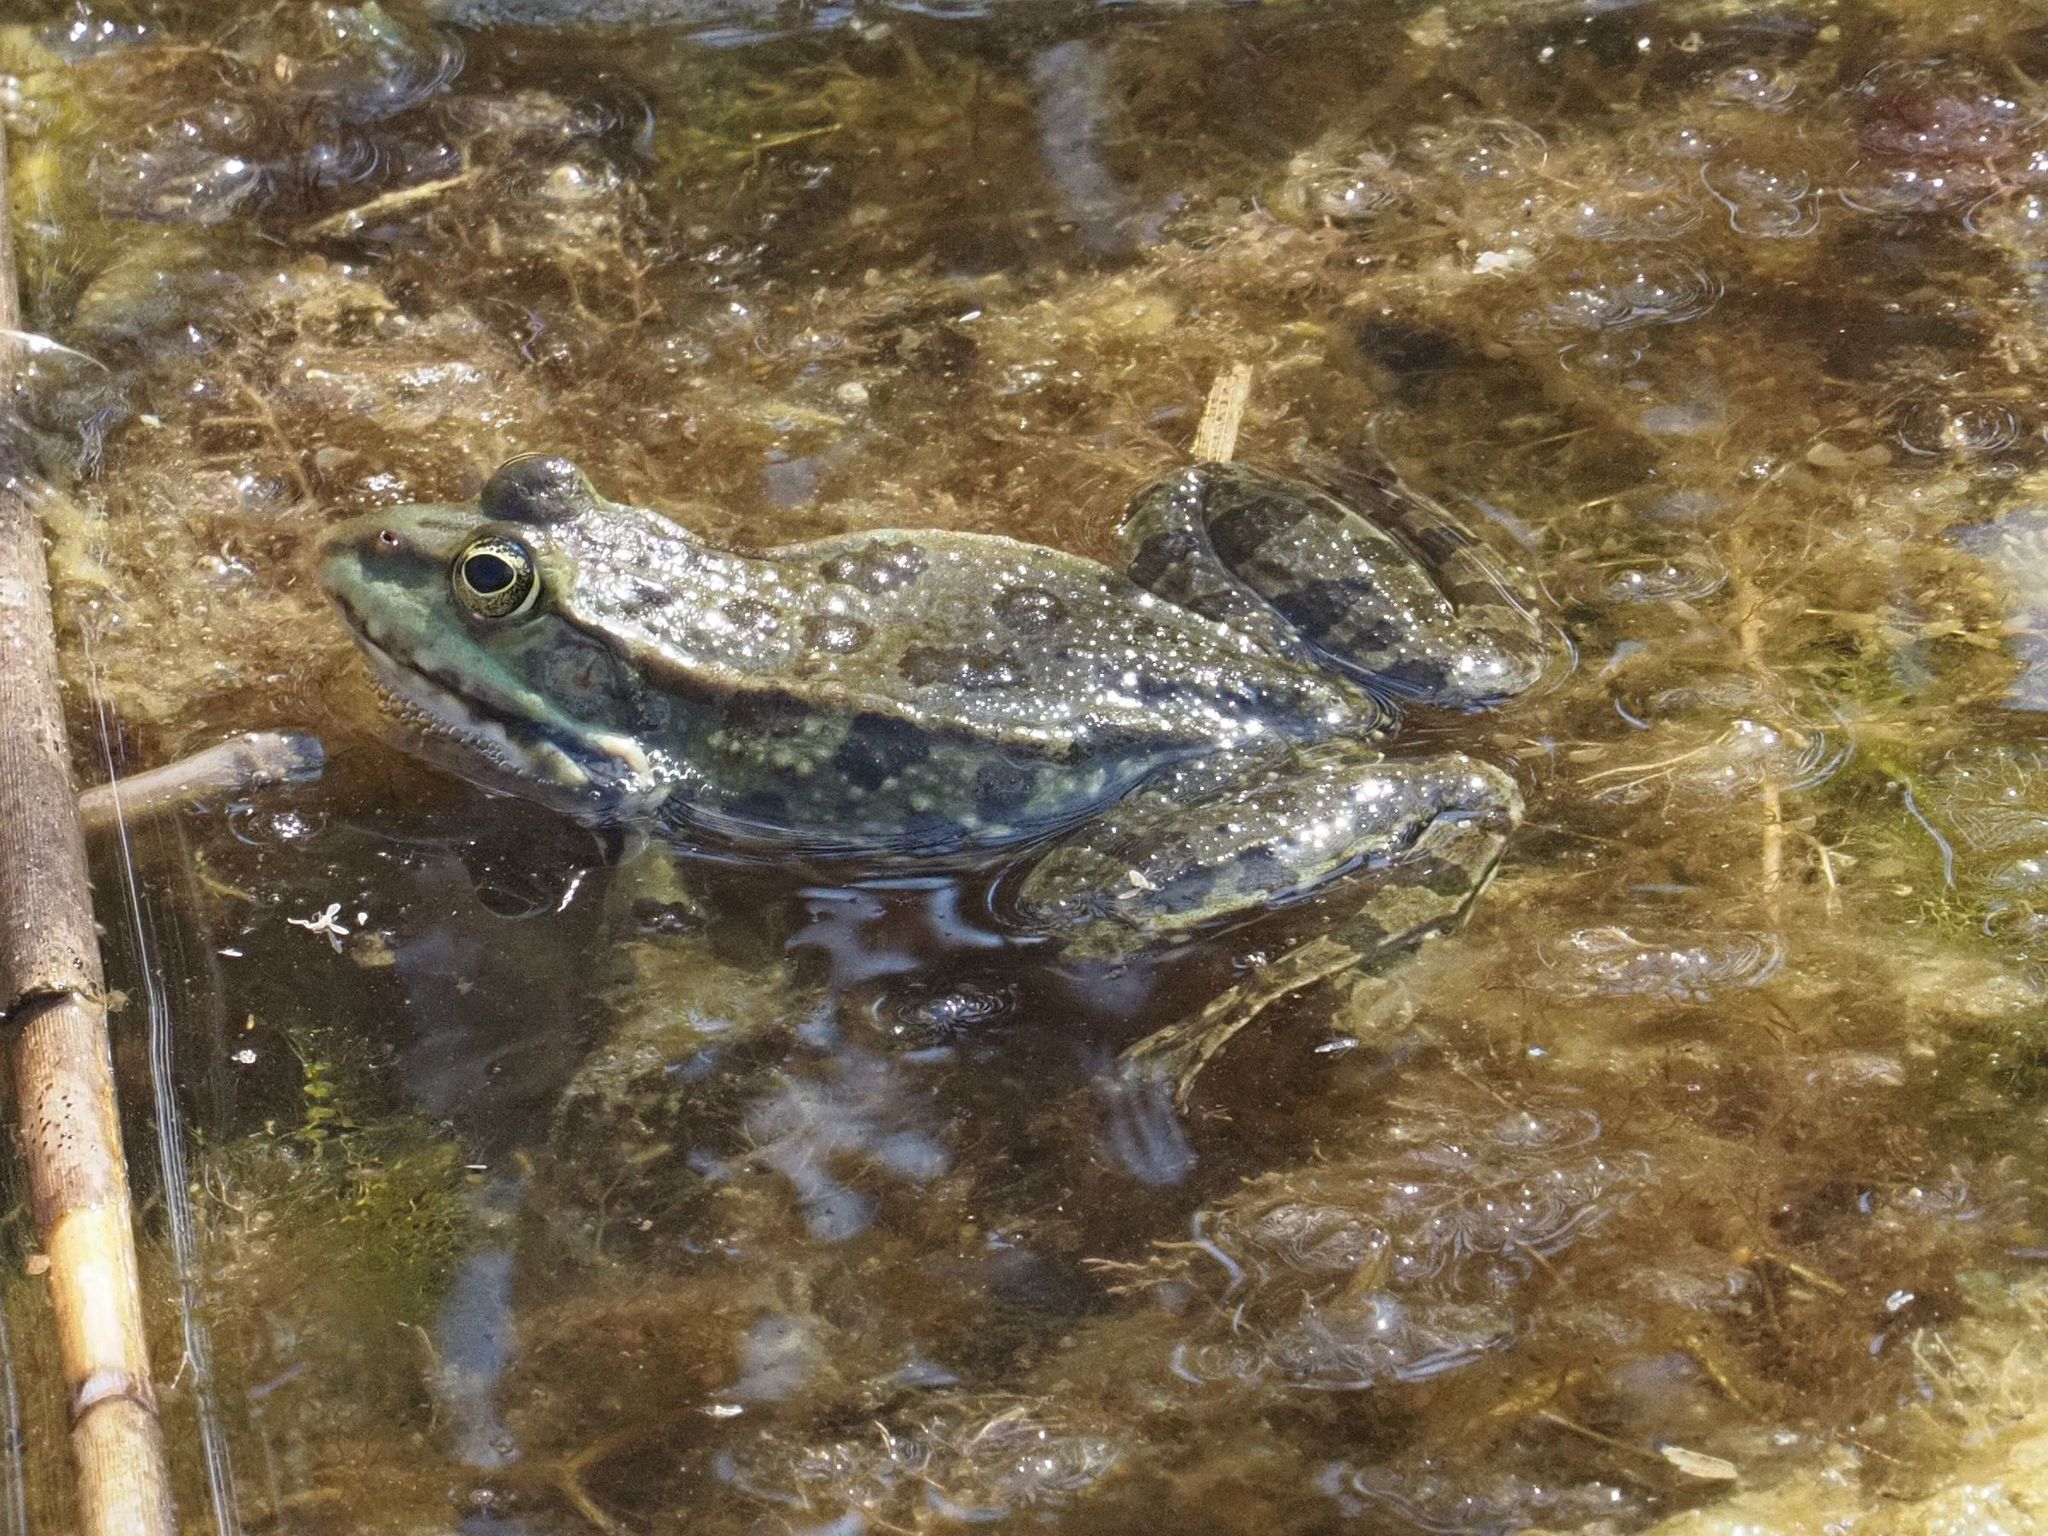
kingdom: Animalia
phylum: Chordata
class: Amphibia
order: Anura
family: Ranidae
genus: Pelophylax
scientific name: Pelophylax
